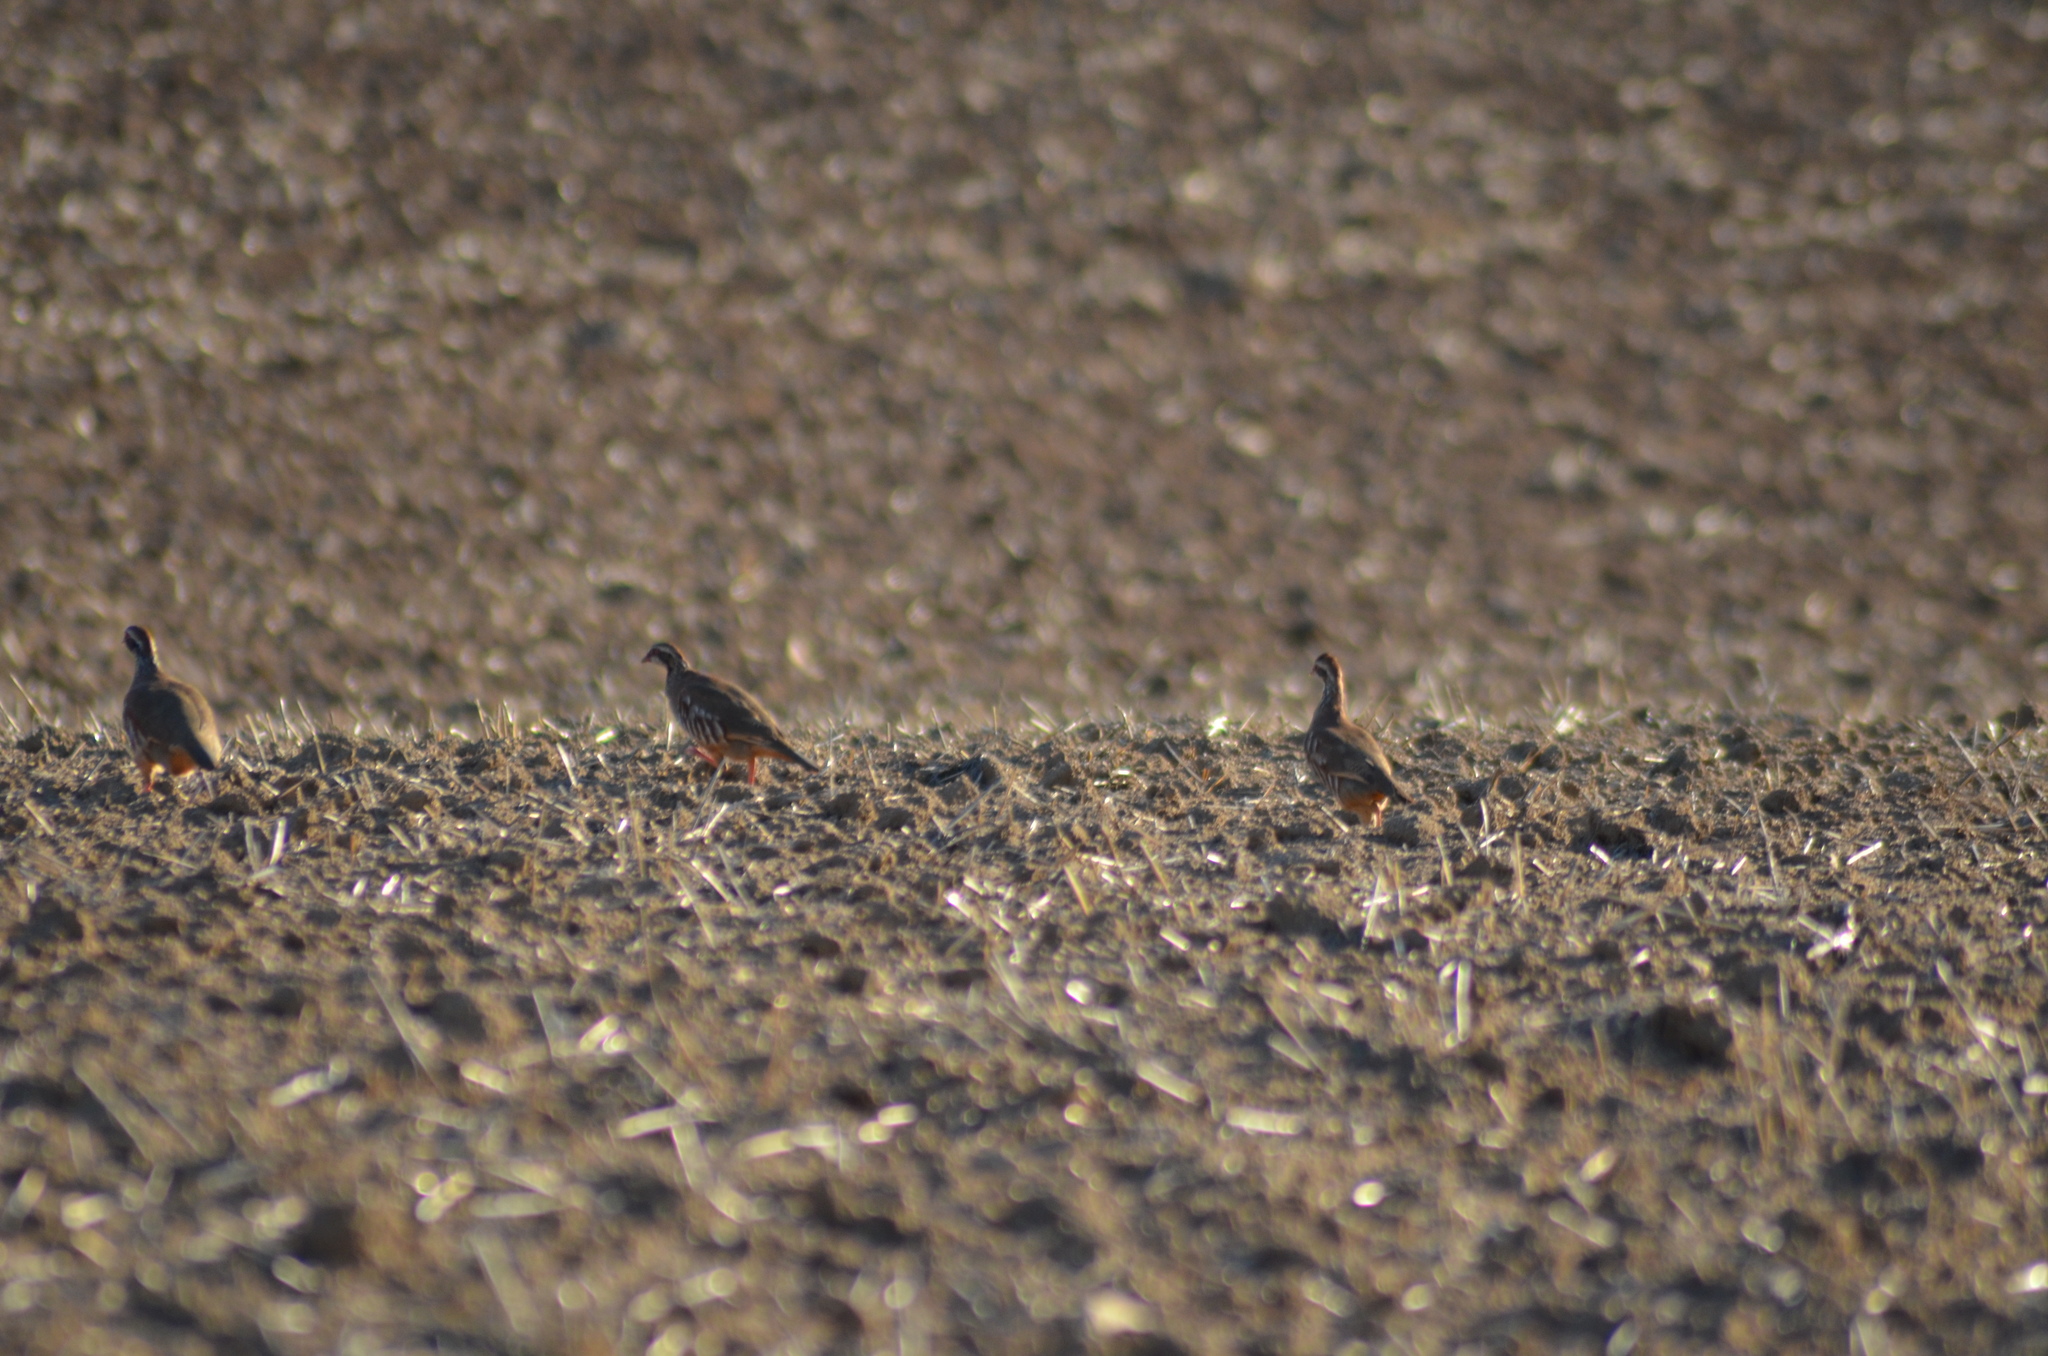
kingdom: Animalia
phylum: Chordata
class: Aves
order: Galliformes
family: Phasianidae
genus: Alectoris
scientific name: Alectoris rufa
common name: Red-legged partridge
